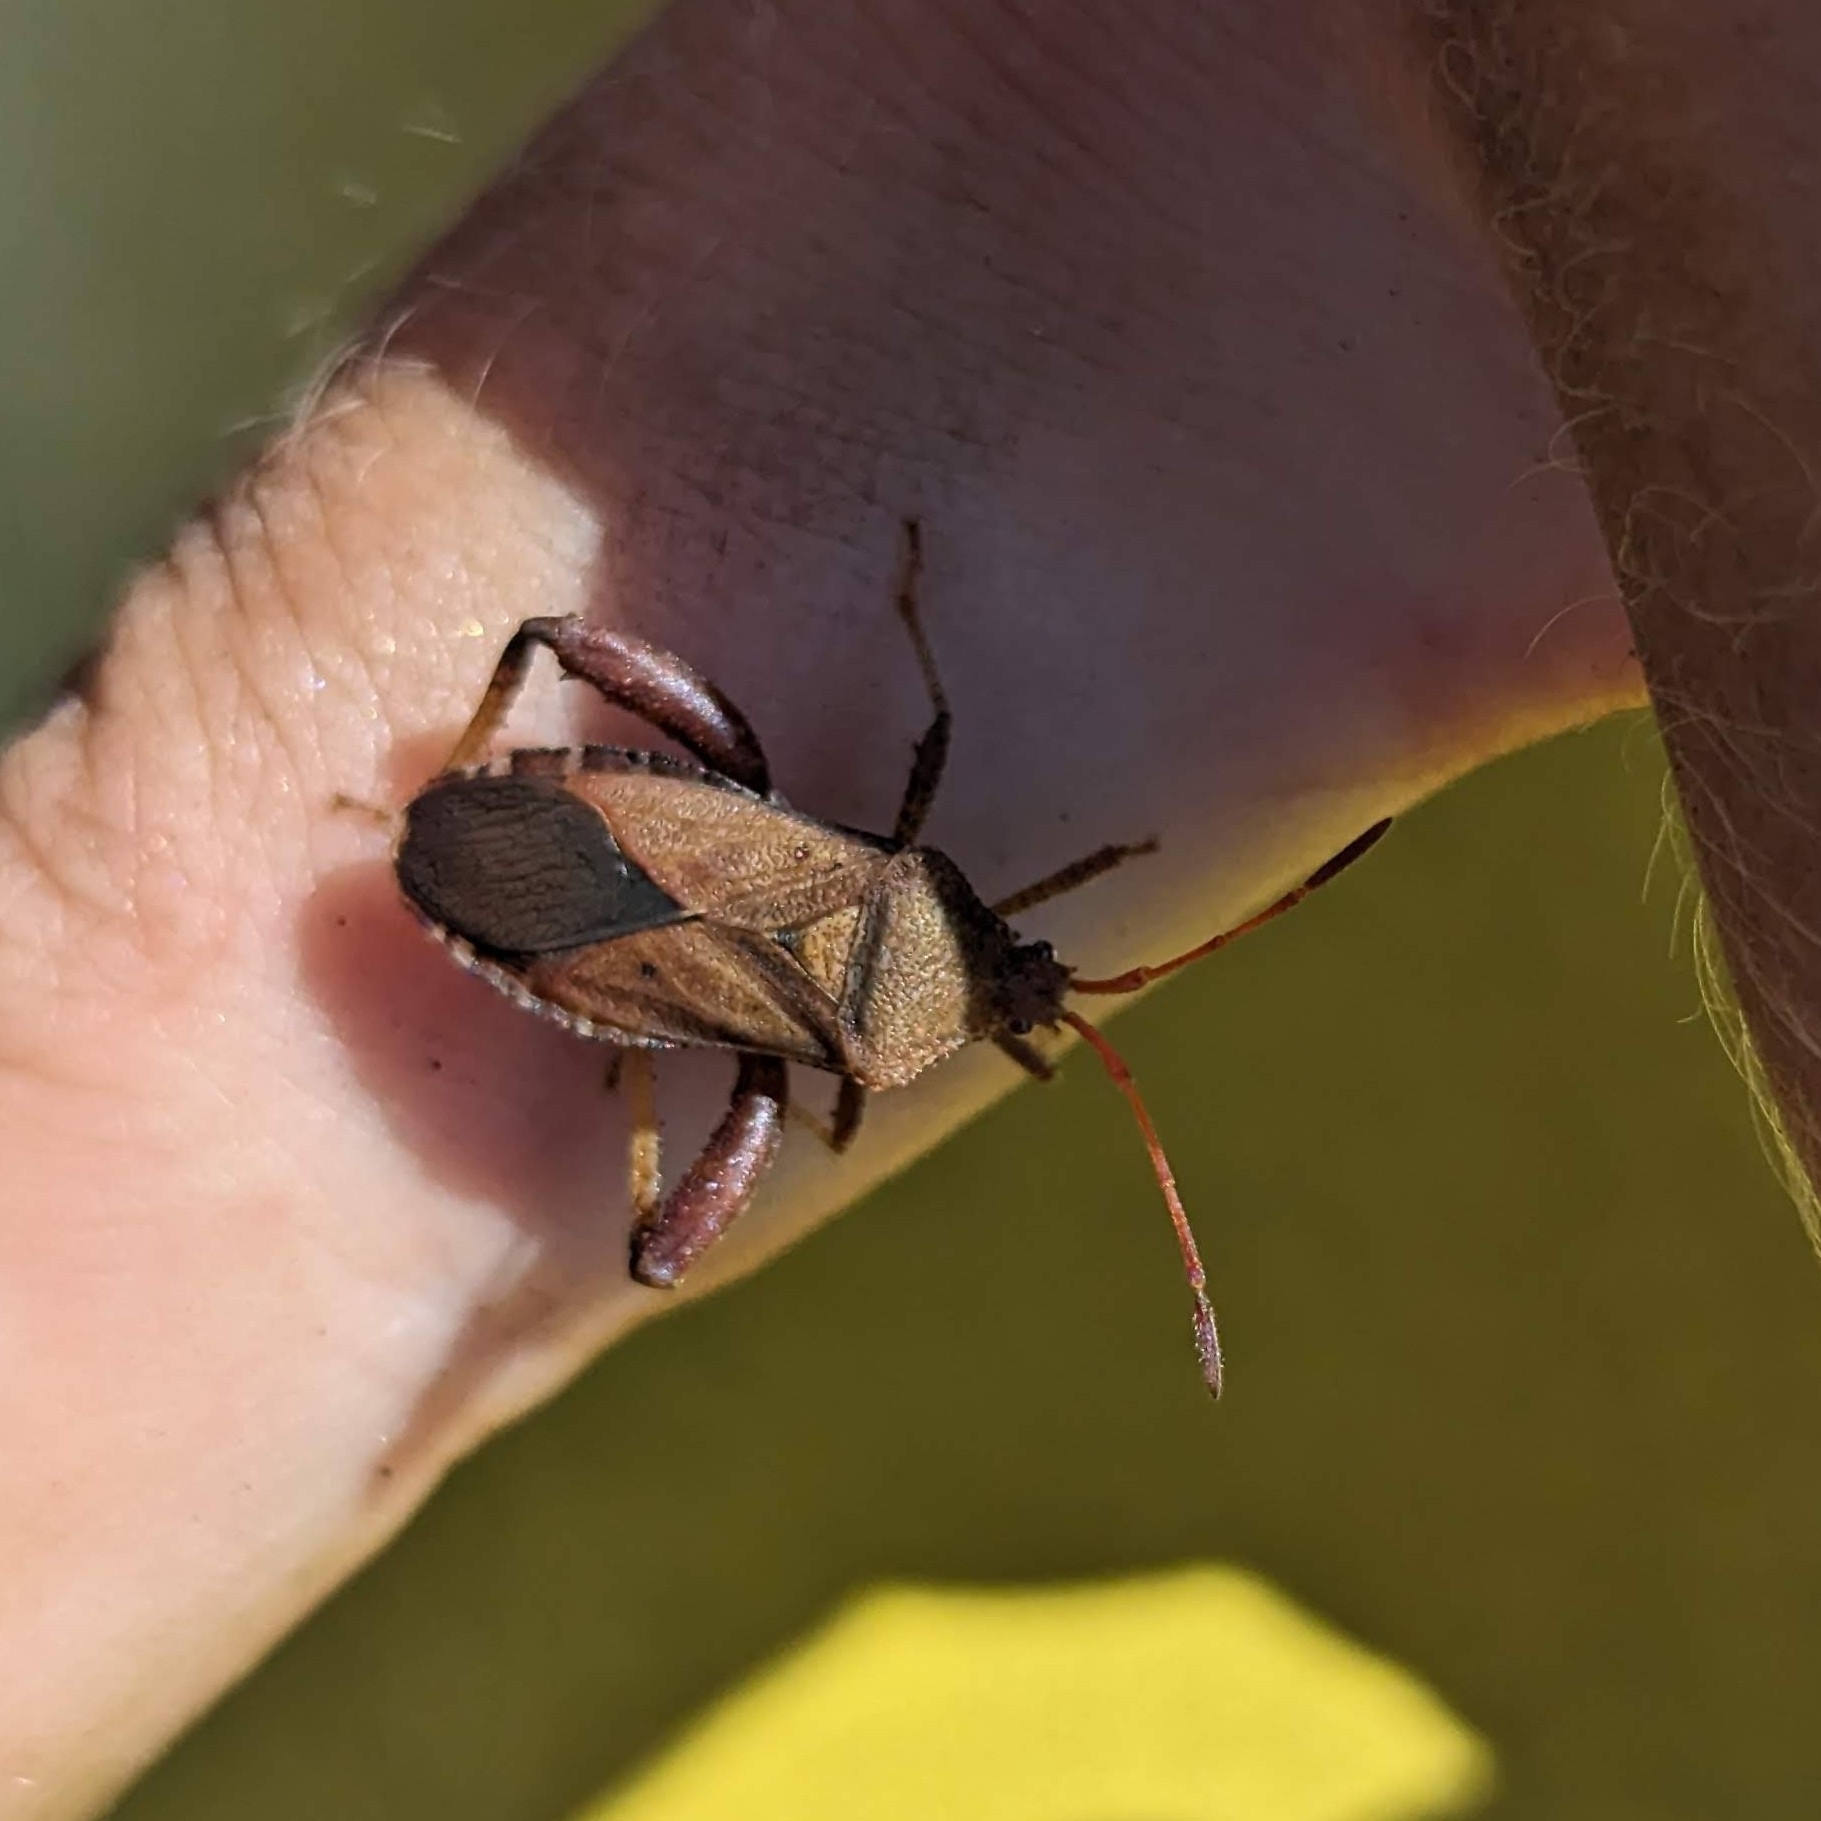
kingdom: Animalia
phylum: Arthropoda
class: Insecta
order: Hemiptera
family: Coreidae
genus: Euthochtha
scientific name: Euthochtha galeator
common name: Helmeted squash bug
